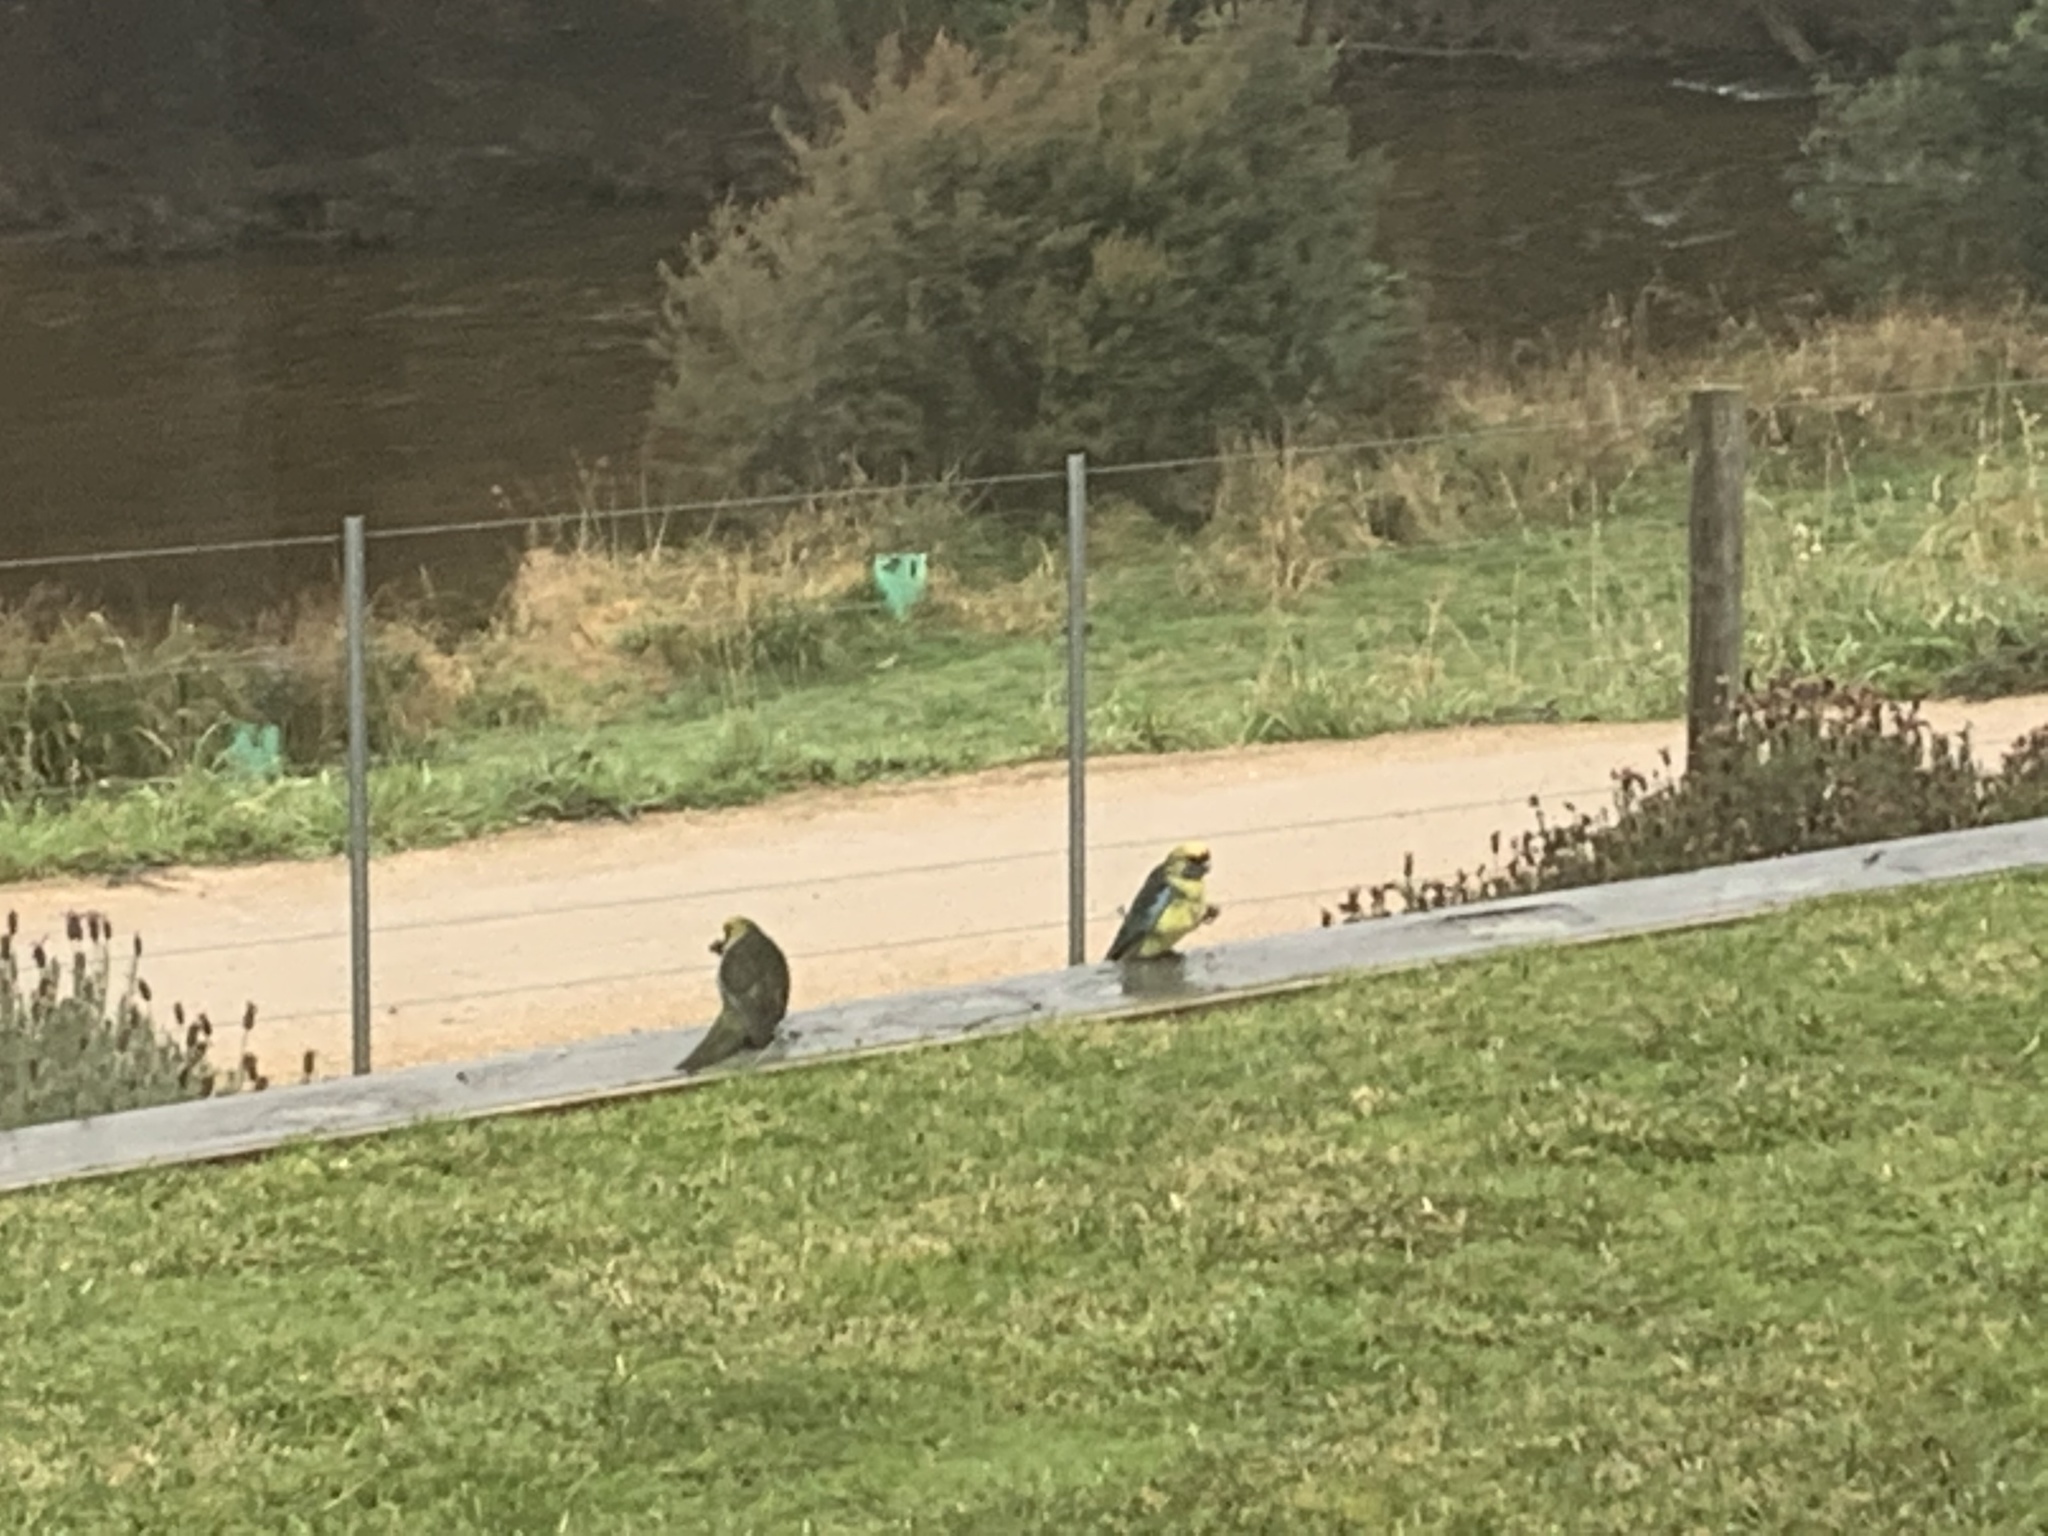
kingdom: Animalia
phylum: Chordata
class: Aves
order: Psittaciformes
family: Psittacidae
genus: Platycercus
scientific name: Platycercus caledonicus
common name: Green rosella
